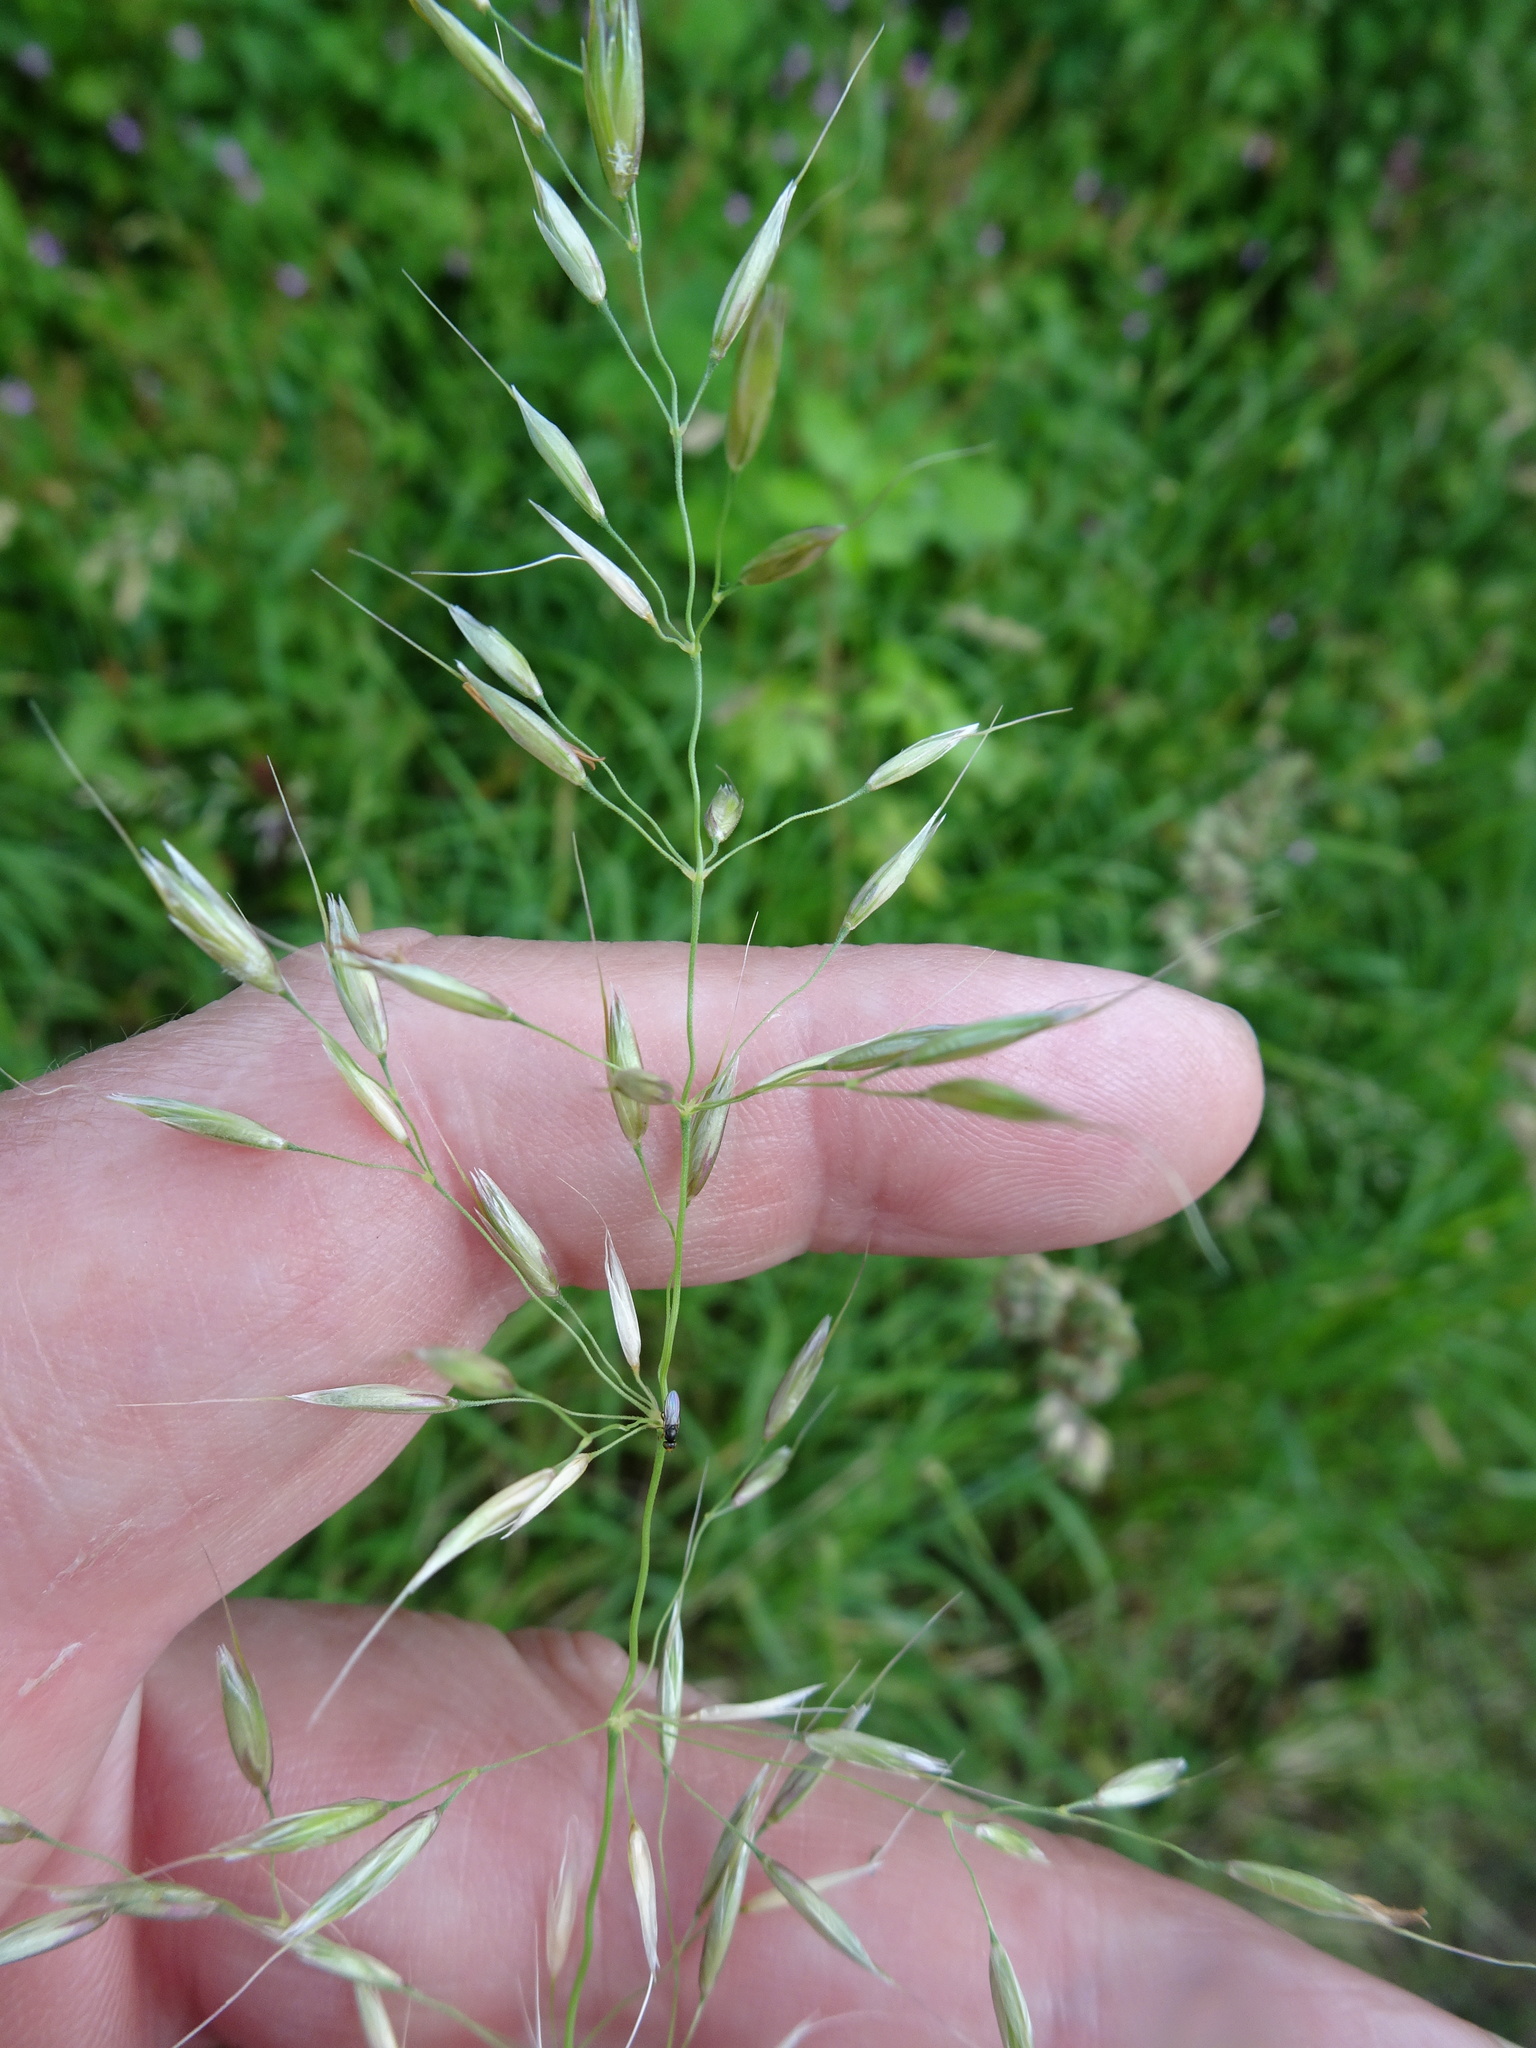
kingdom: Plantae
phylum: Tracheophyta
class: Liliopsida
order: Poales
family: Poaceae
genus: Arrhenatherum
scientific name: Arrhenatherum elatius
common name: Tall oatgrass
